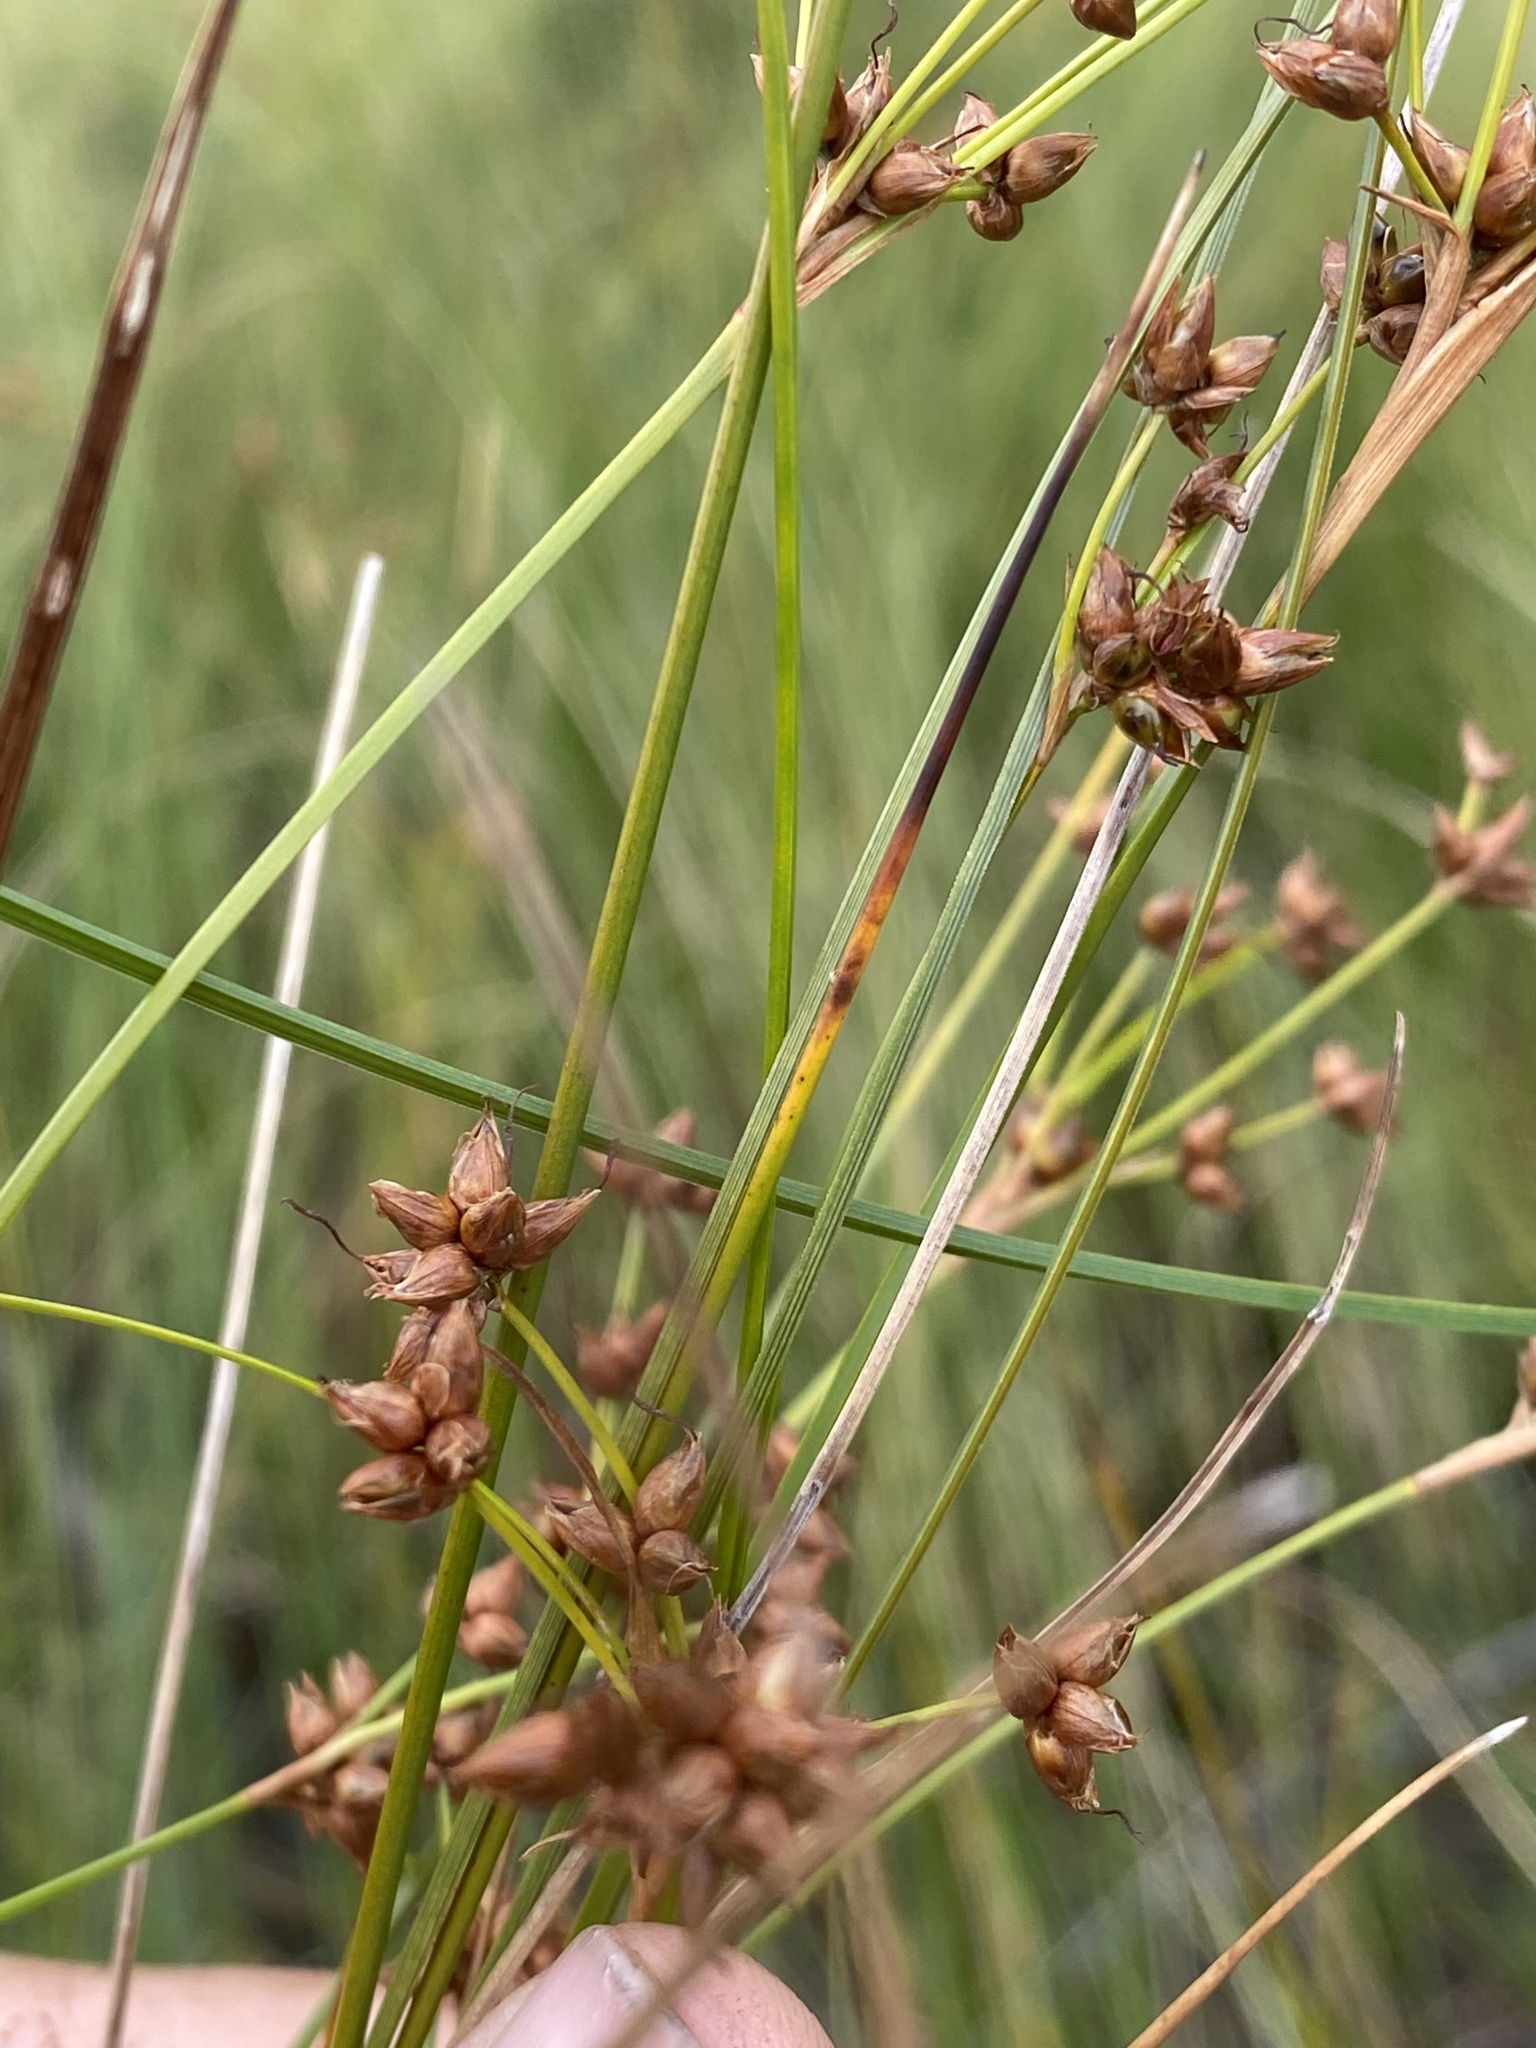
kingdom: Plantae
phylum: Tracheophyta
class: Liliopsida
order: Poales
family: Cyperaceae
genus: Cladium
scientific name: Cladium mariscoides
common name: Smooth sawgrass
